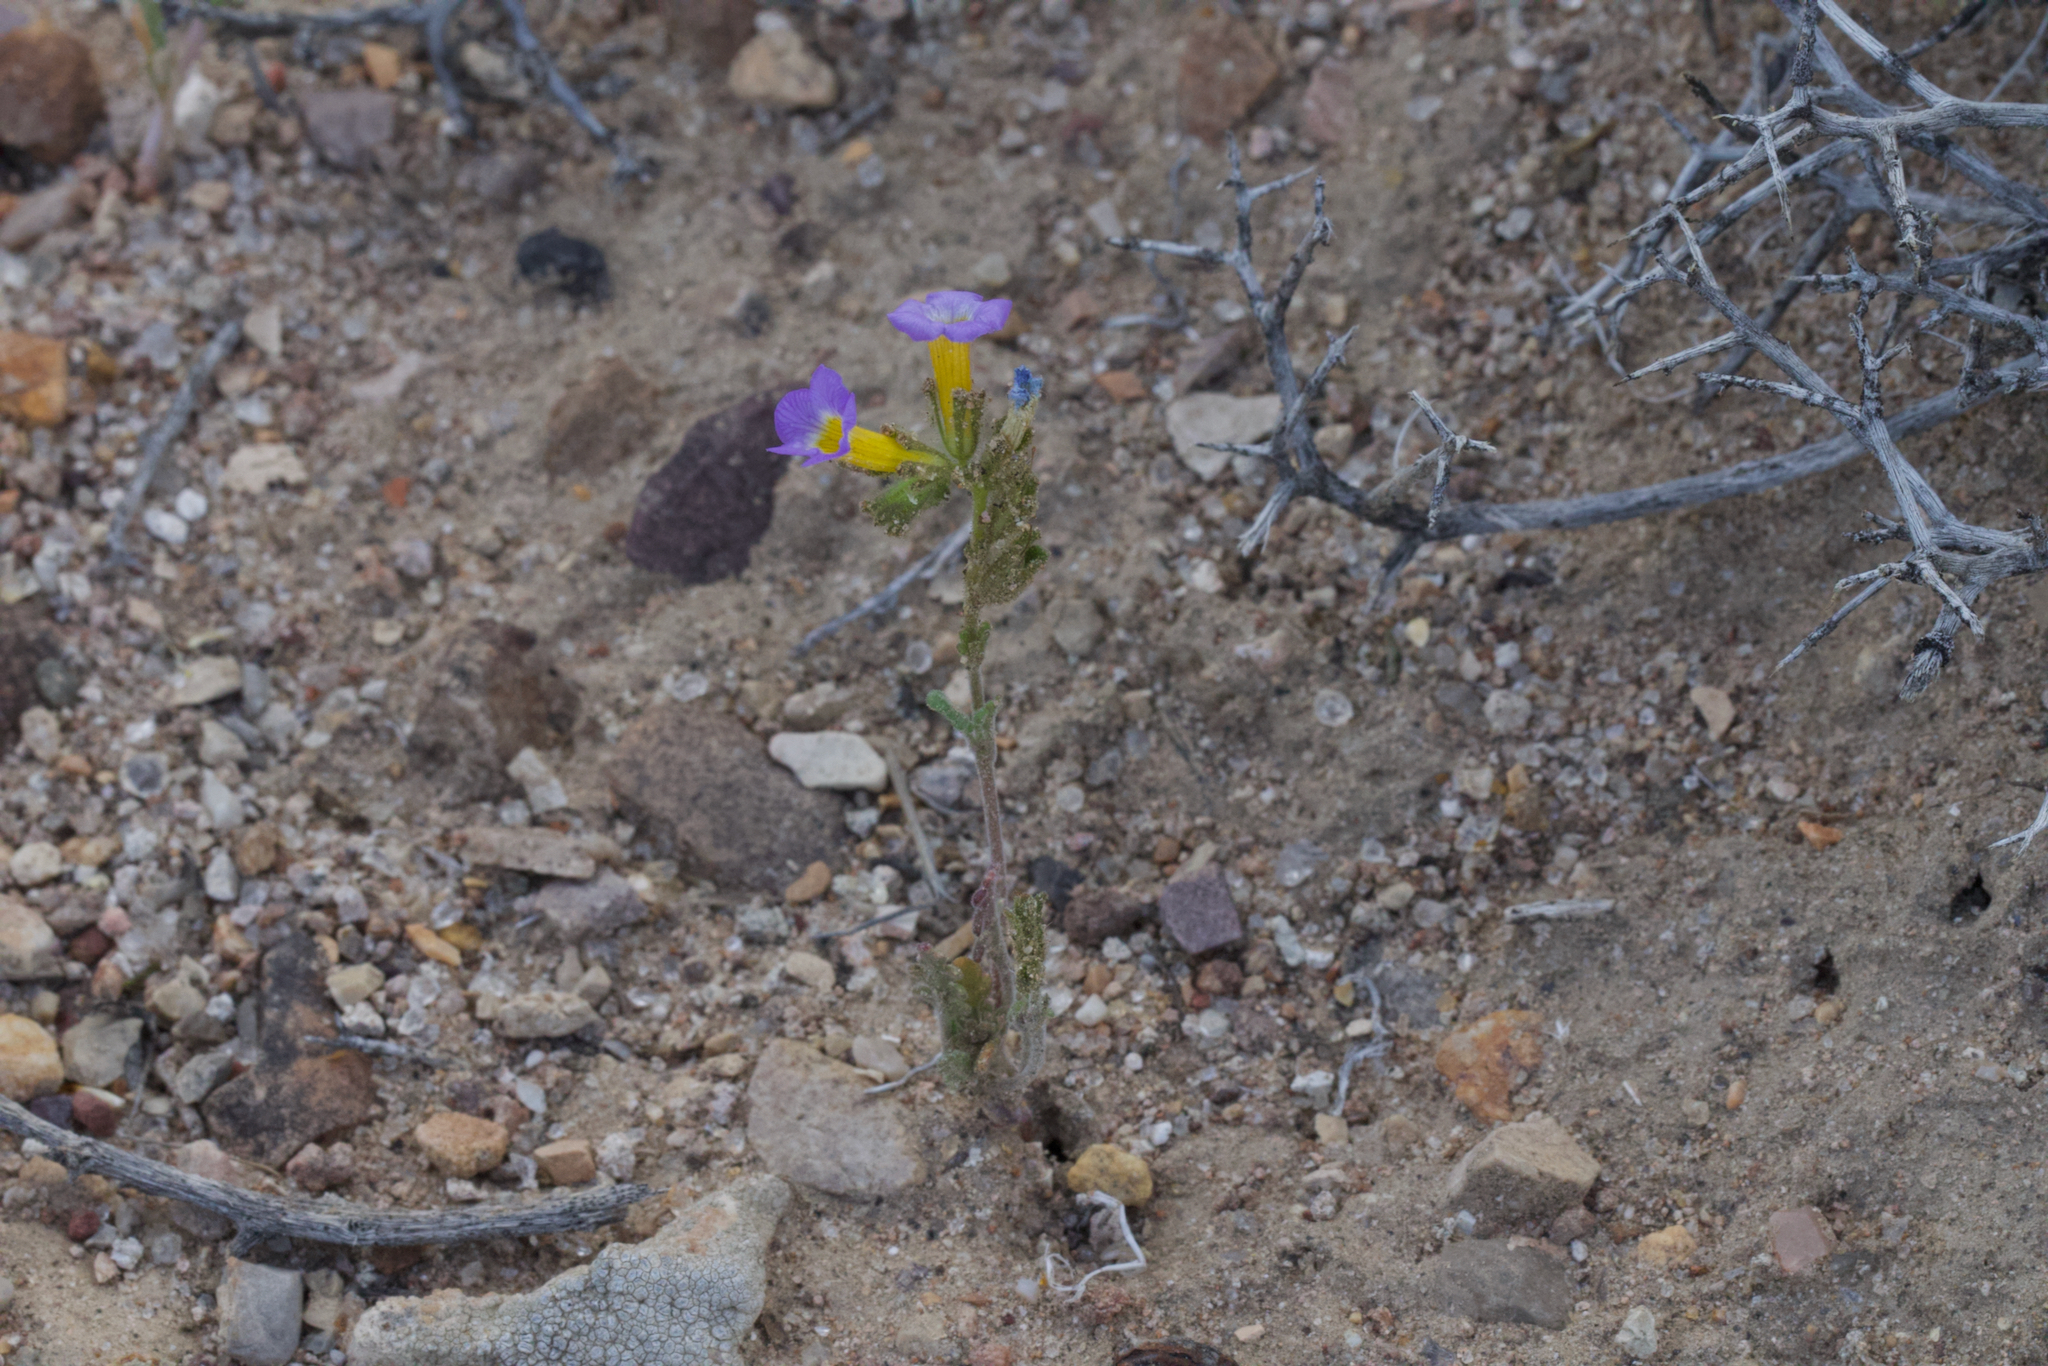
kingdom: Plantae
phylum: Tracheophyta
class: Magnoliopsida
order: Boraginales
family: Hydrophyllaceae
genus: Phacelia
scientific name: Phacelia fremontii
